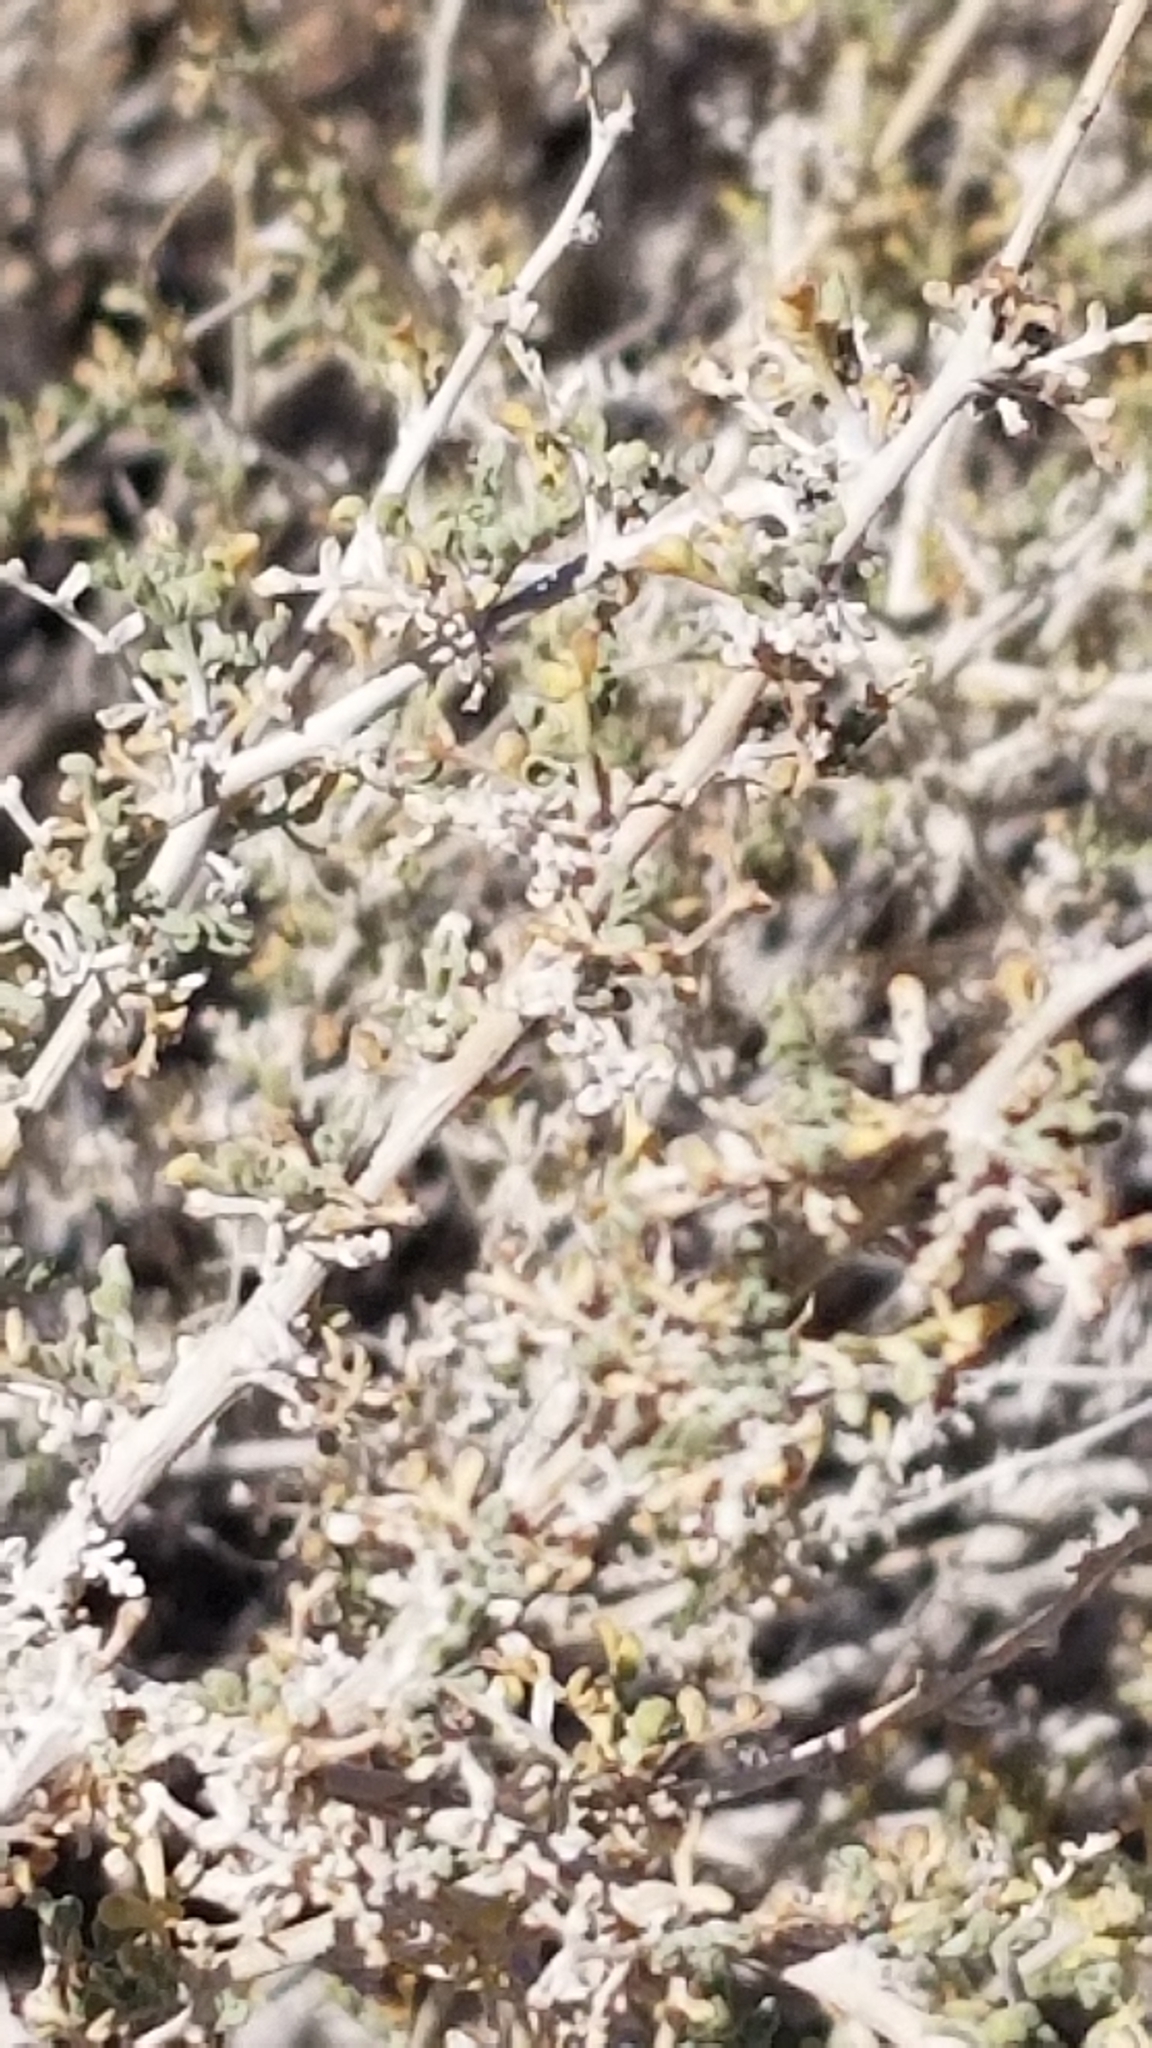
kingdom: Plantae
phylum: Tracheophyta
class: Magnoliopsida
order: Asterales
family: Asteraceae
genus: Ambrosia
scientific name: Ambrosia dumosa
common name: Bur-sage
